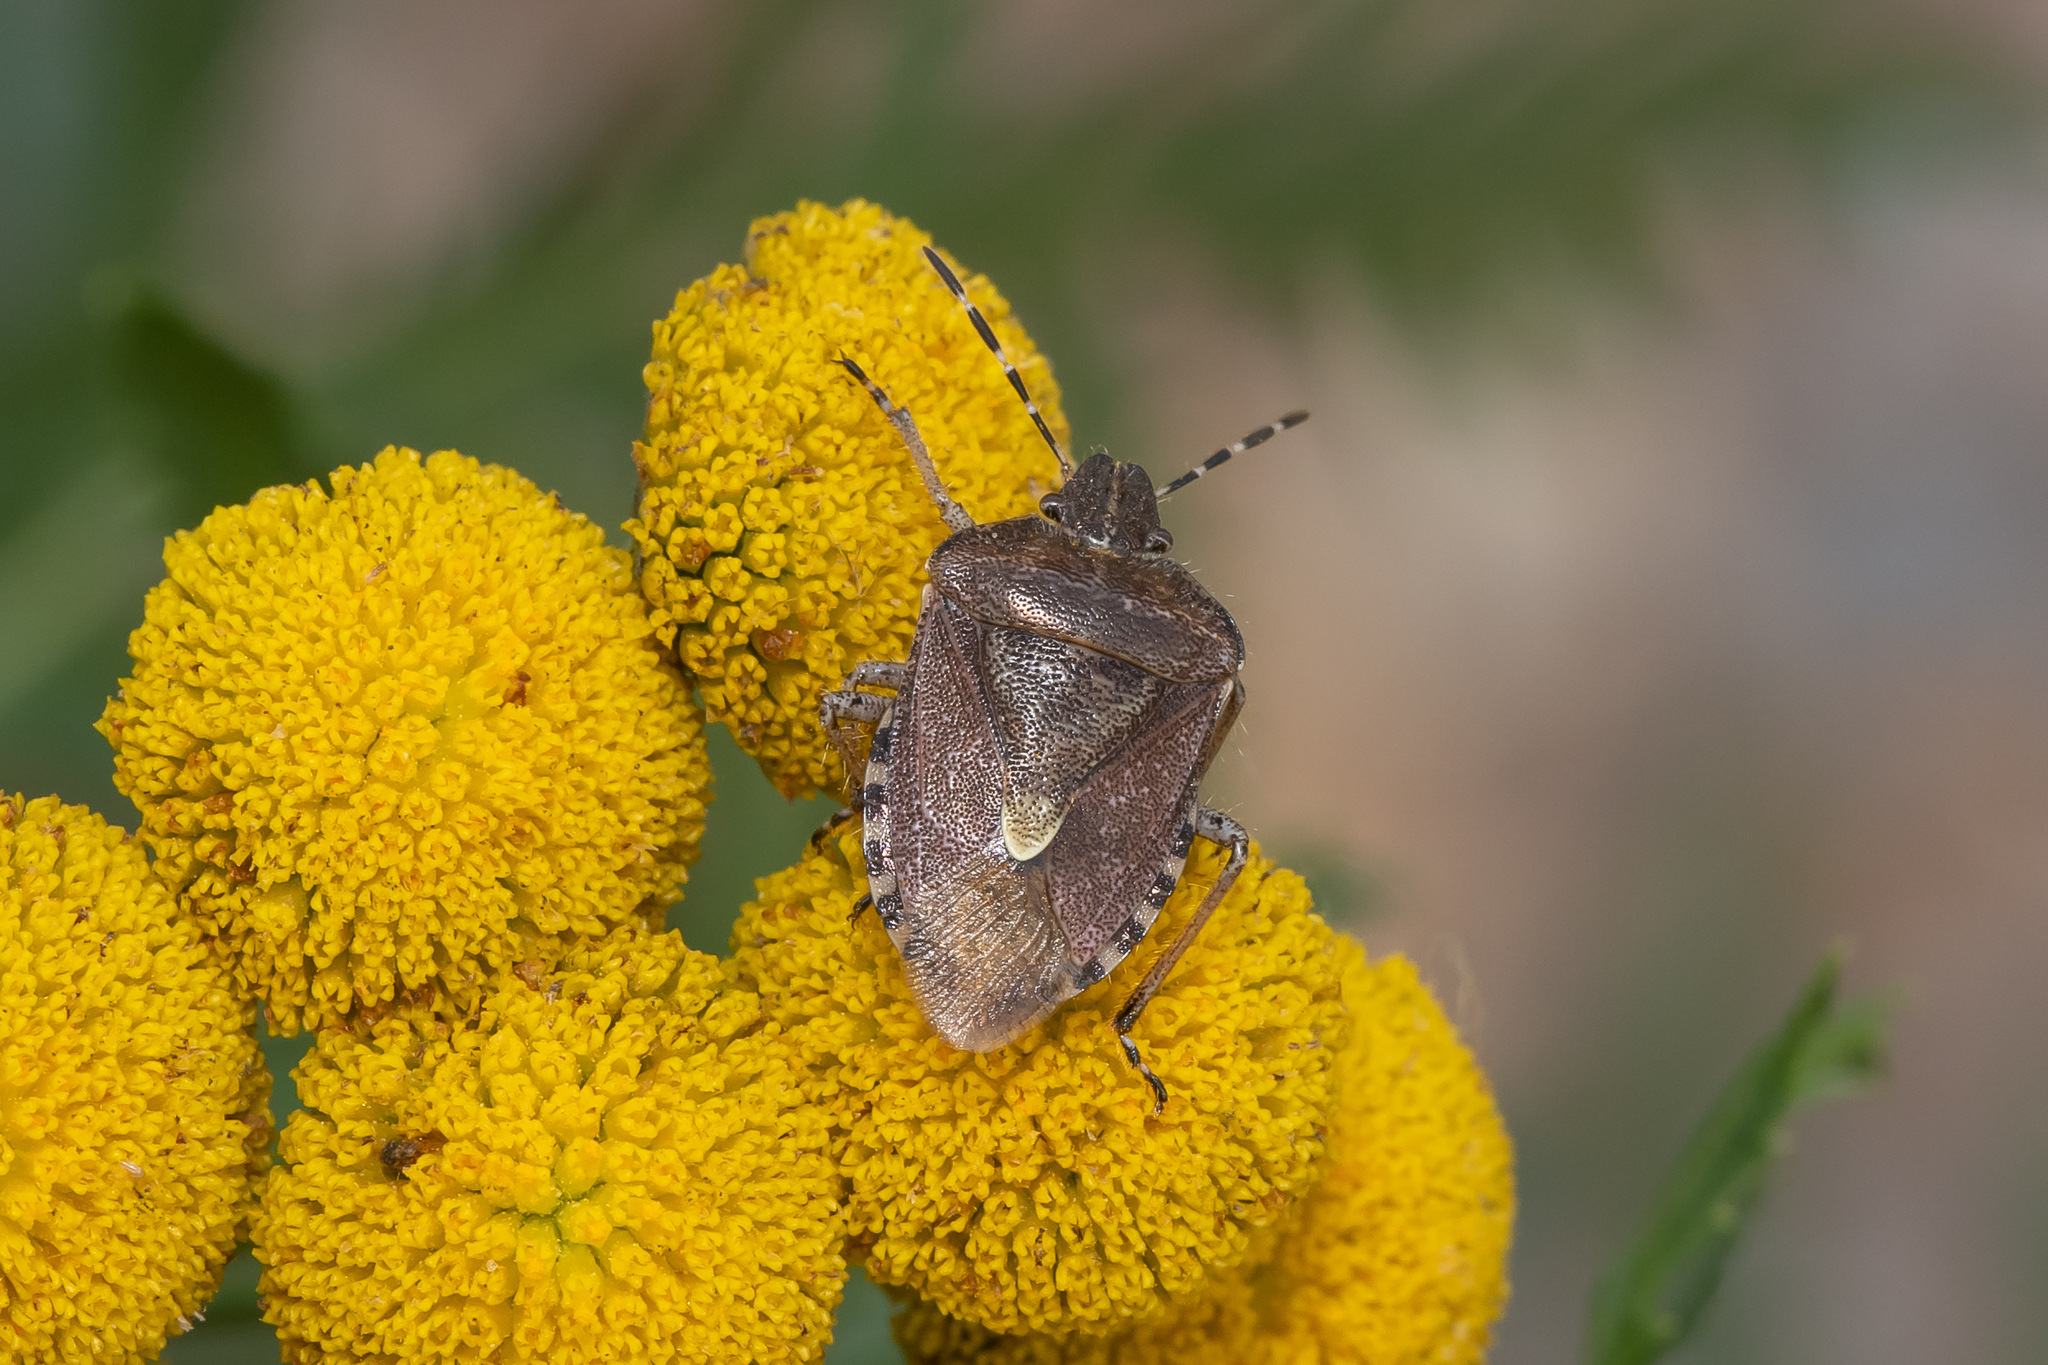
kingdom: Animalia
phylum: Arthropoda
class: Insecta
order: Hemiptera
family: Pentatomidae
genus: Dolycoris
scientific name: Dolycoris baccarum
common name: Sloe bug
